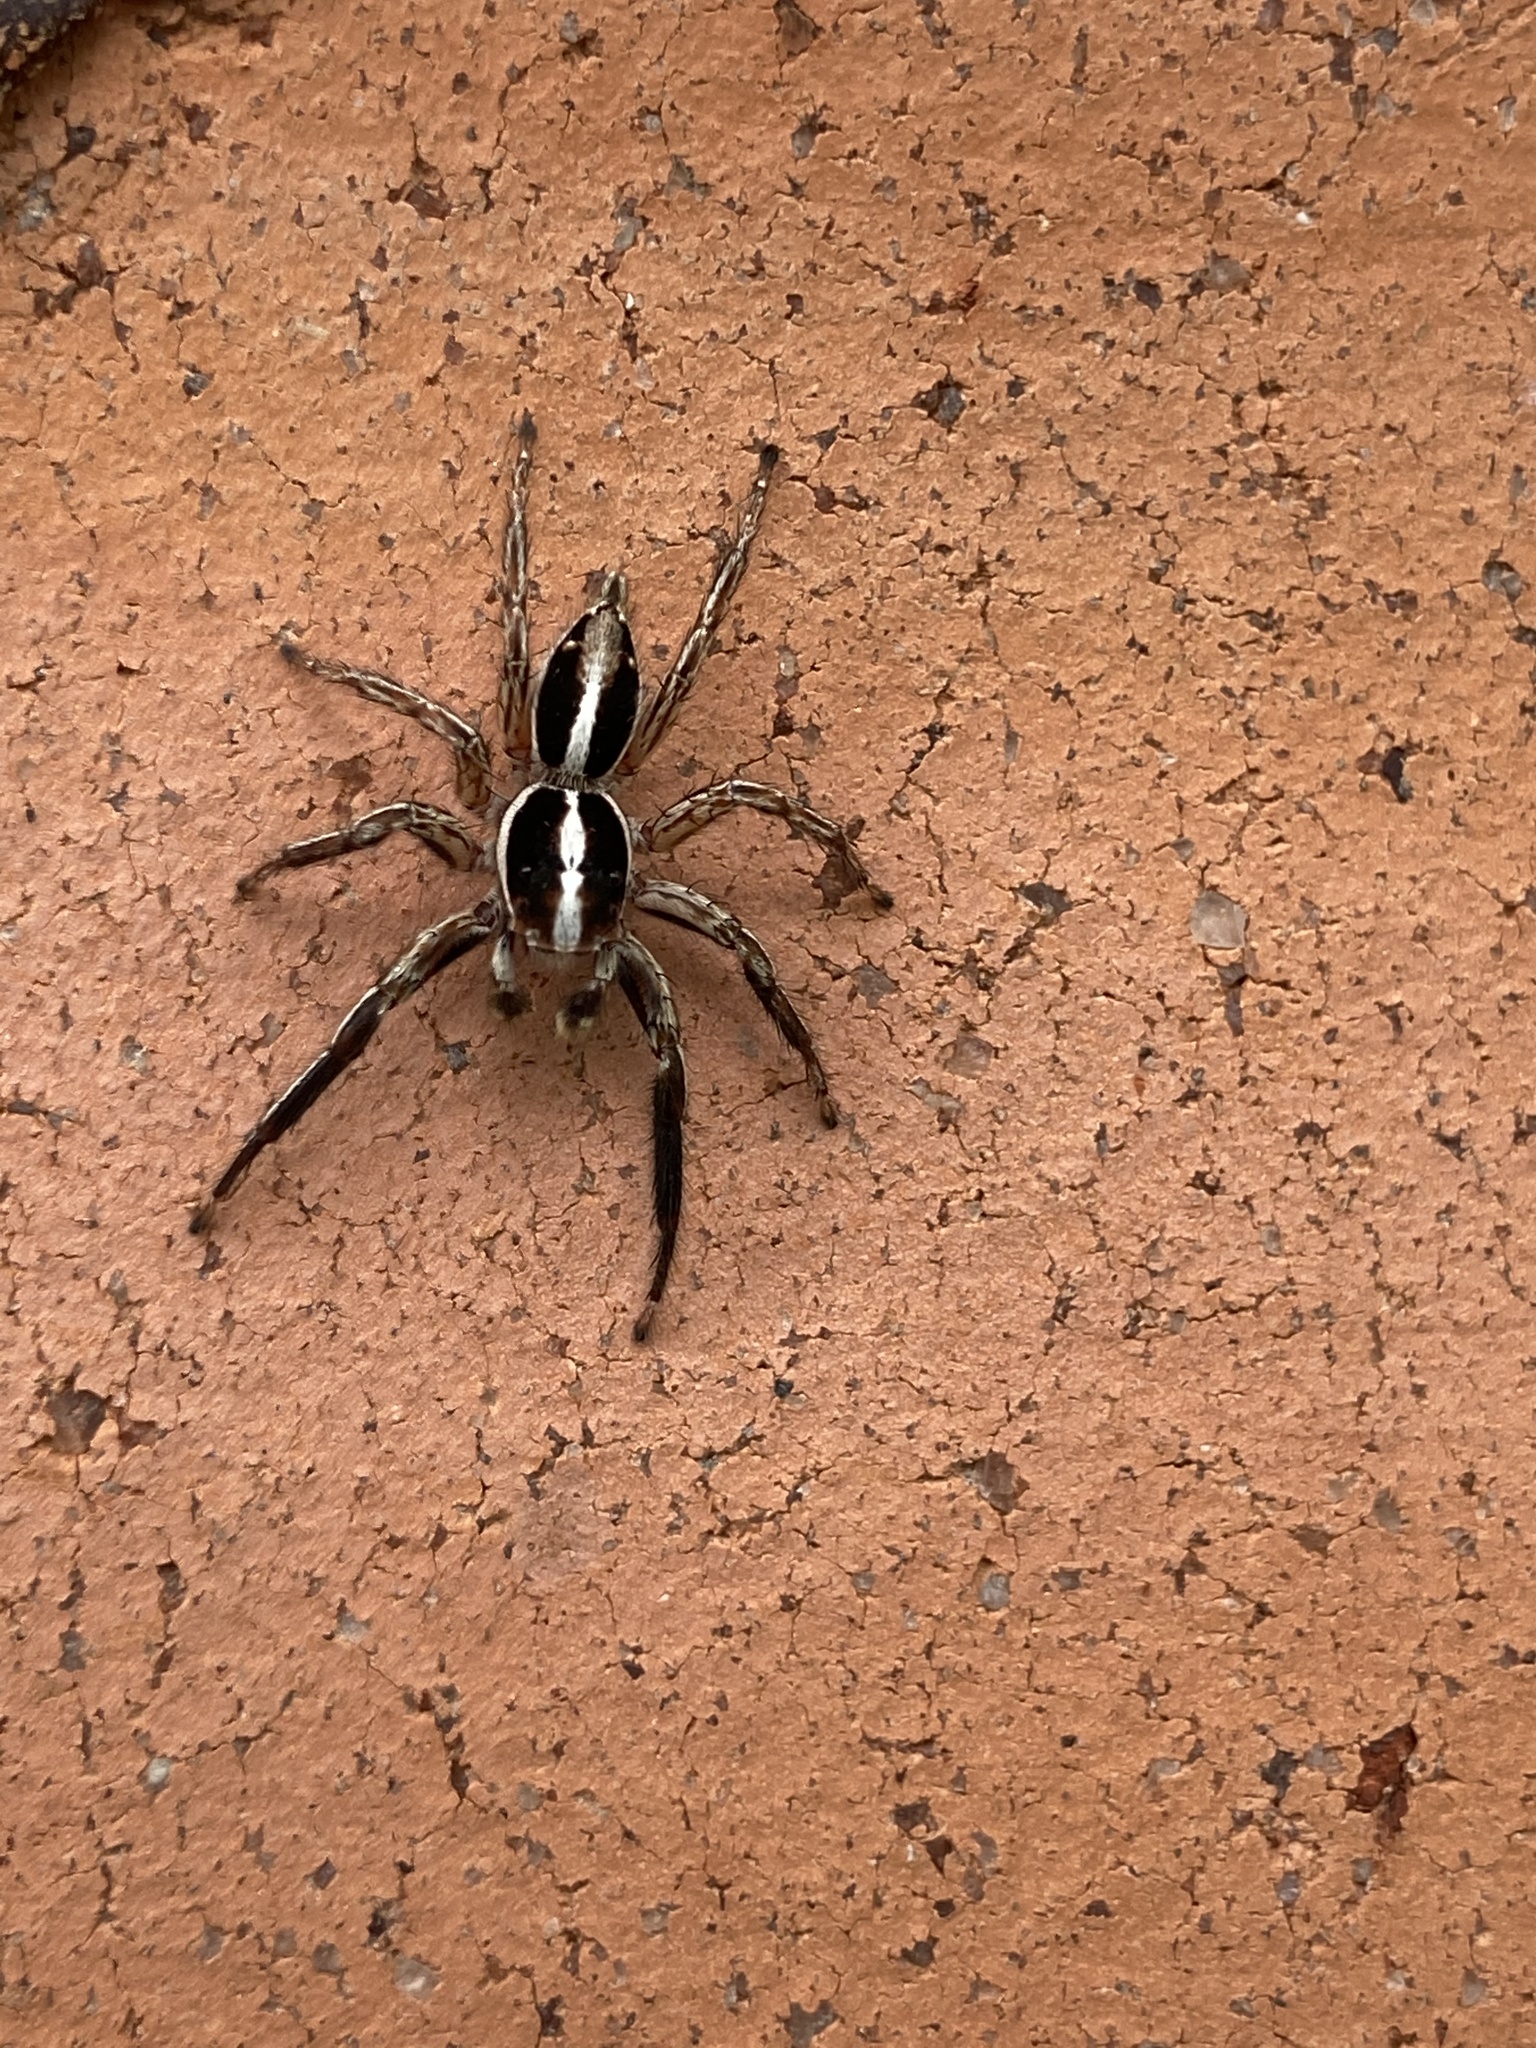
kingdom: Animalia
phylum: Arthropoda
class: Arachnida
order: Araneae
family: Salticidae
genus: Plexippus
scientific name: Plexippus paykulli
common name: Pantropical jumper
